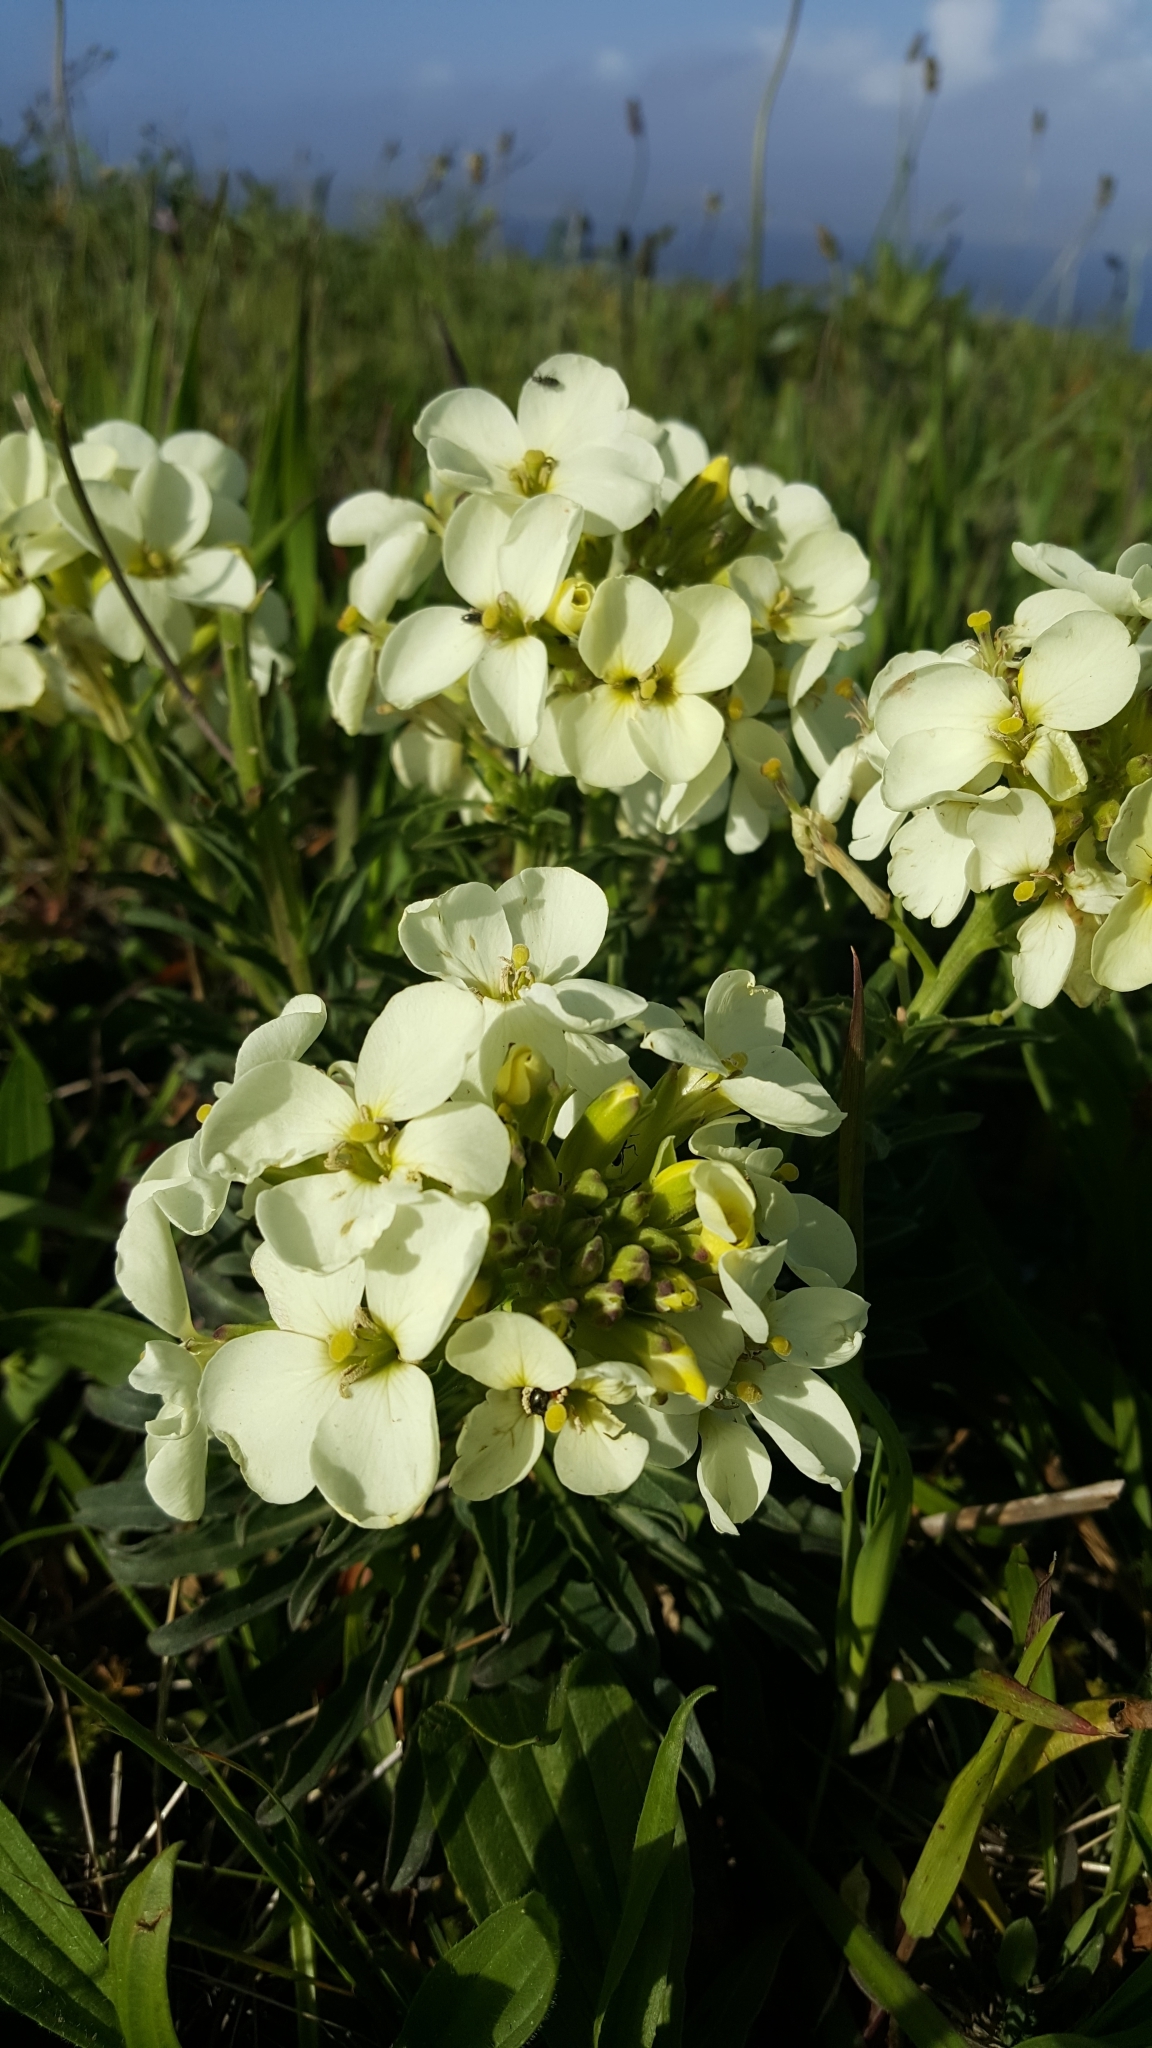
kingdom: Plantae
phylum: Tracheophyta
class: Magnoliopsida
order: Brassicales
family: Brassicaceae
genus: Erysimum
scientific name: Erysimum concinnum
